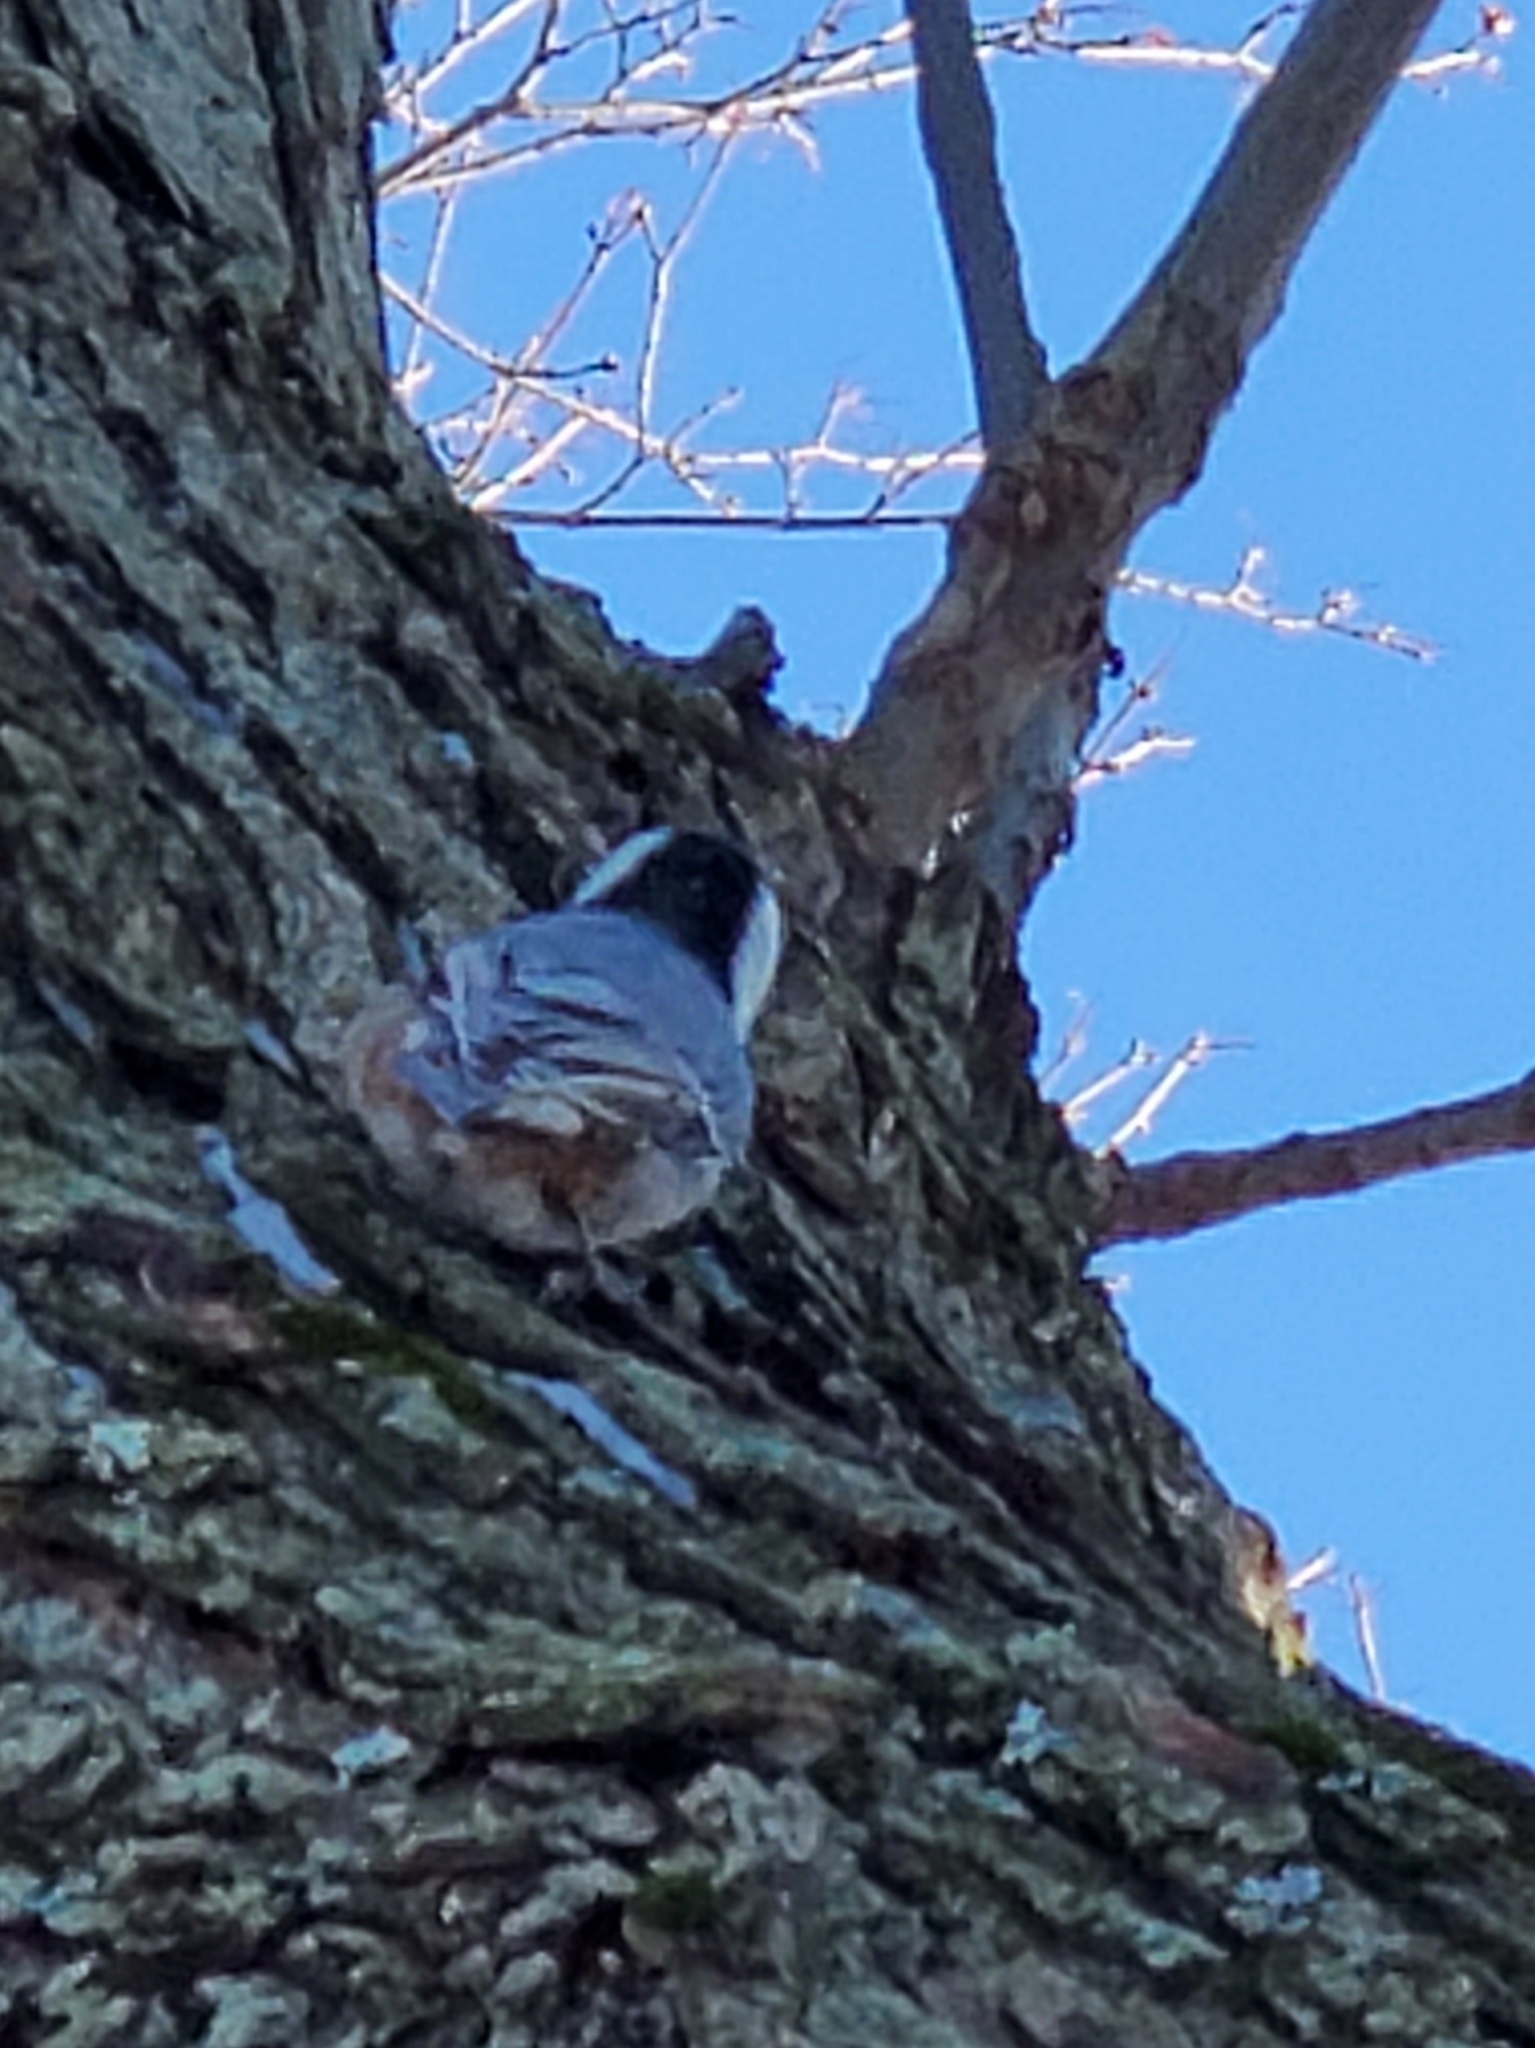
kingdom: Animalia
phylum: Chordata
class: Aves
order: Passeriformes
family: Sittidae
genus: Sitta
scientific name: Sitta carolinensis
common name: White-breasted nuthatch
